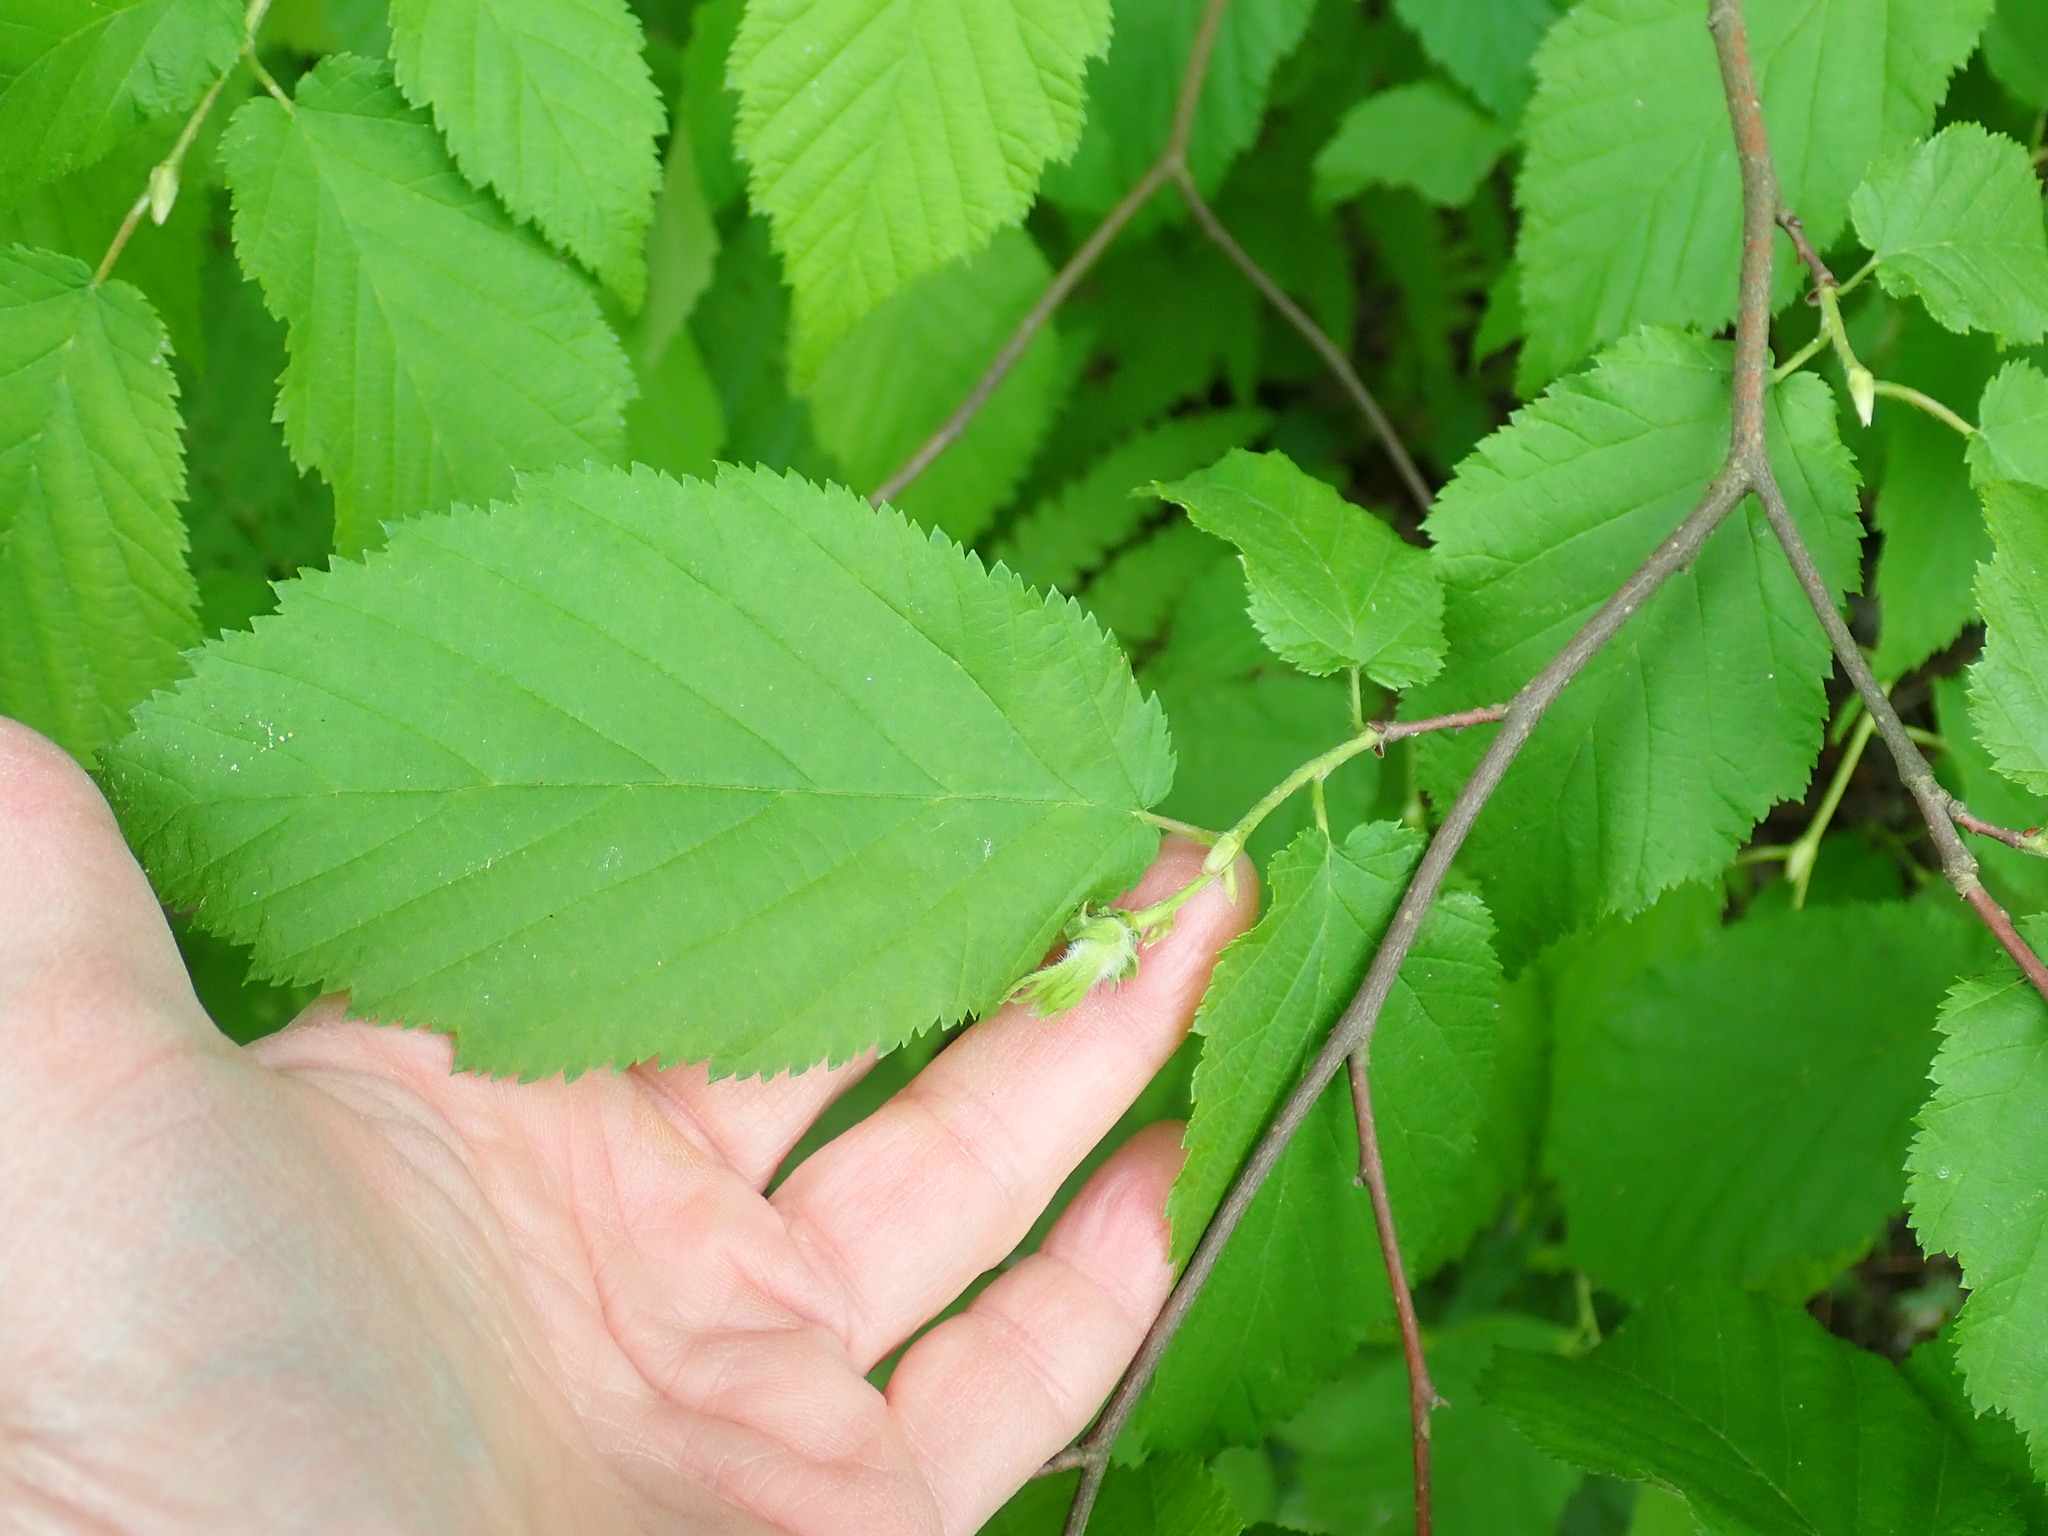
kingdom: Plantae
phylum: Tracheophyta
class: Magnoliopsida
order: Fagales
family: Betulaceae
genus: Corylus
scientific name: Corylus cornuta
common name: Beaked hazel
